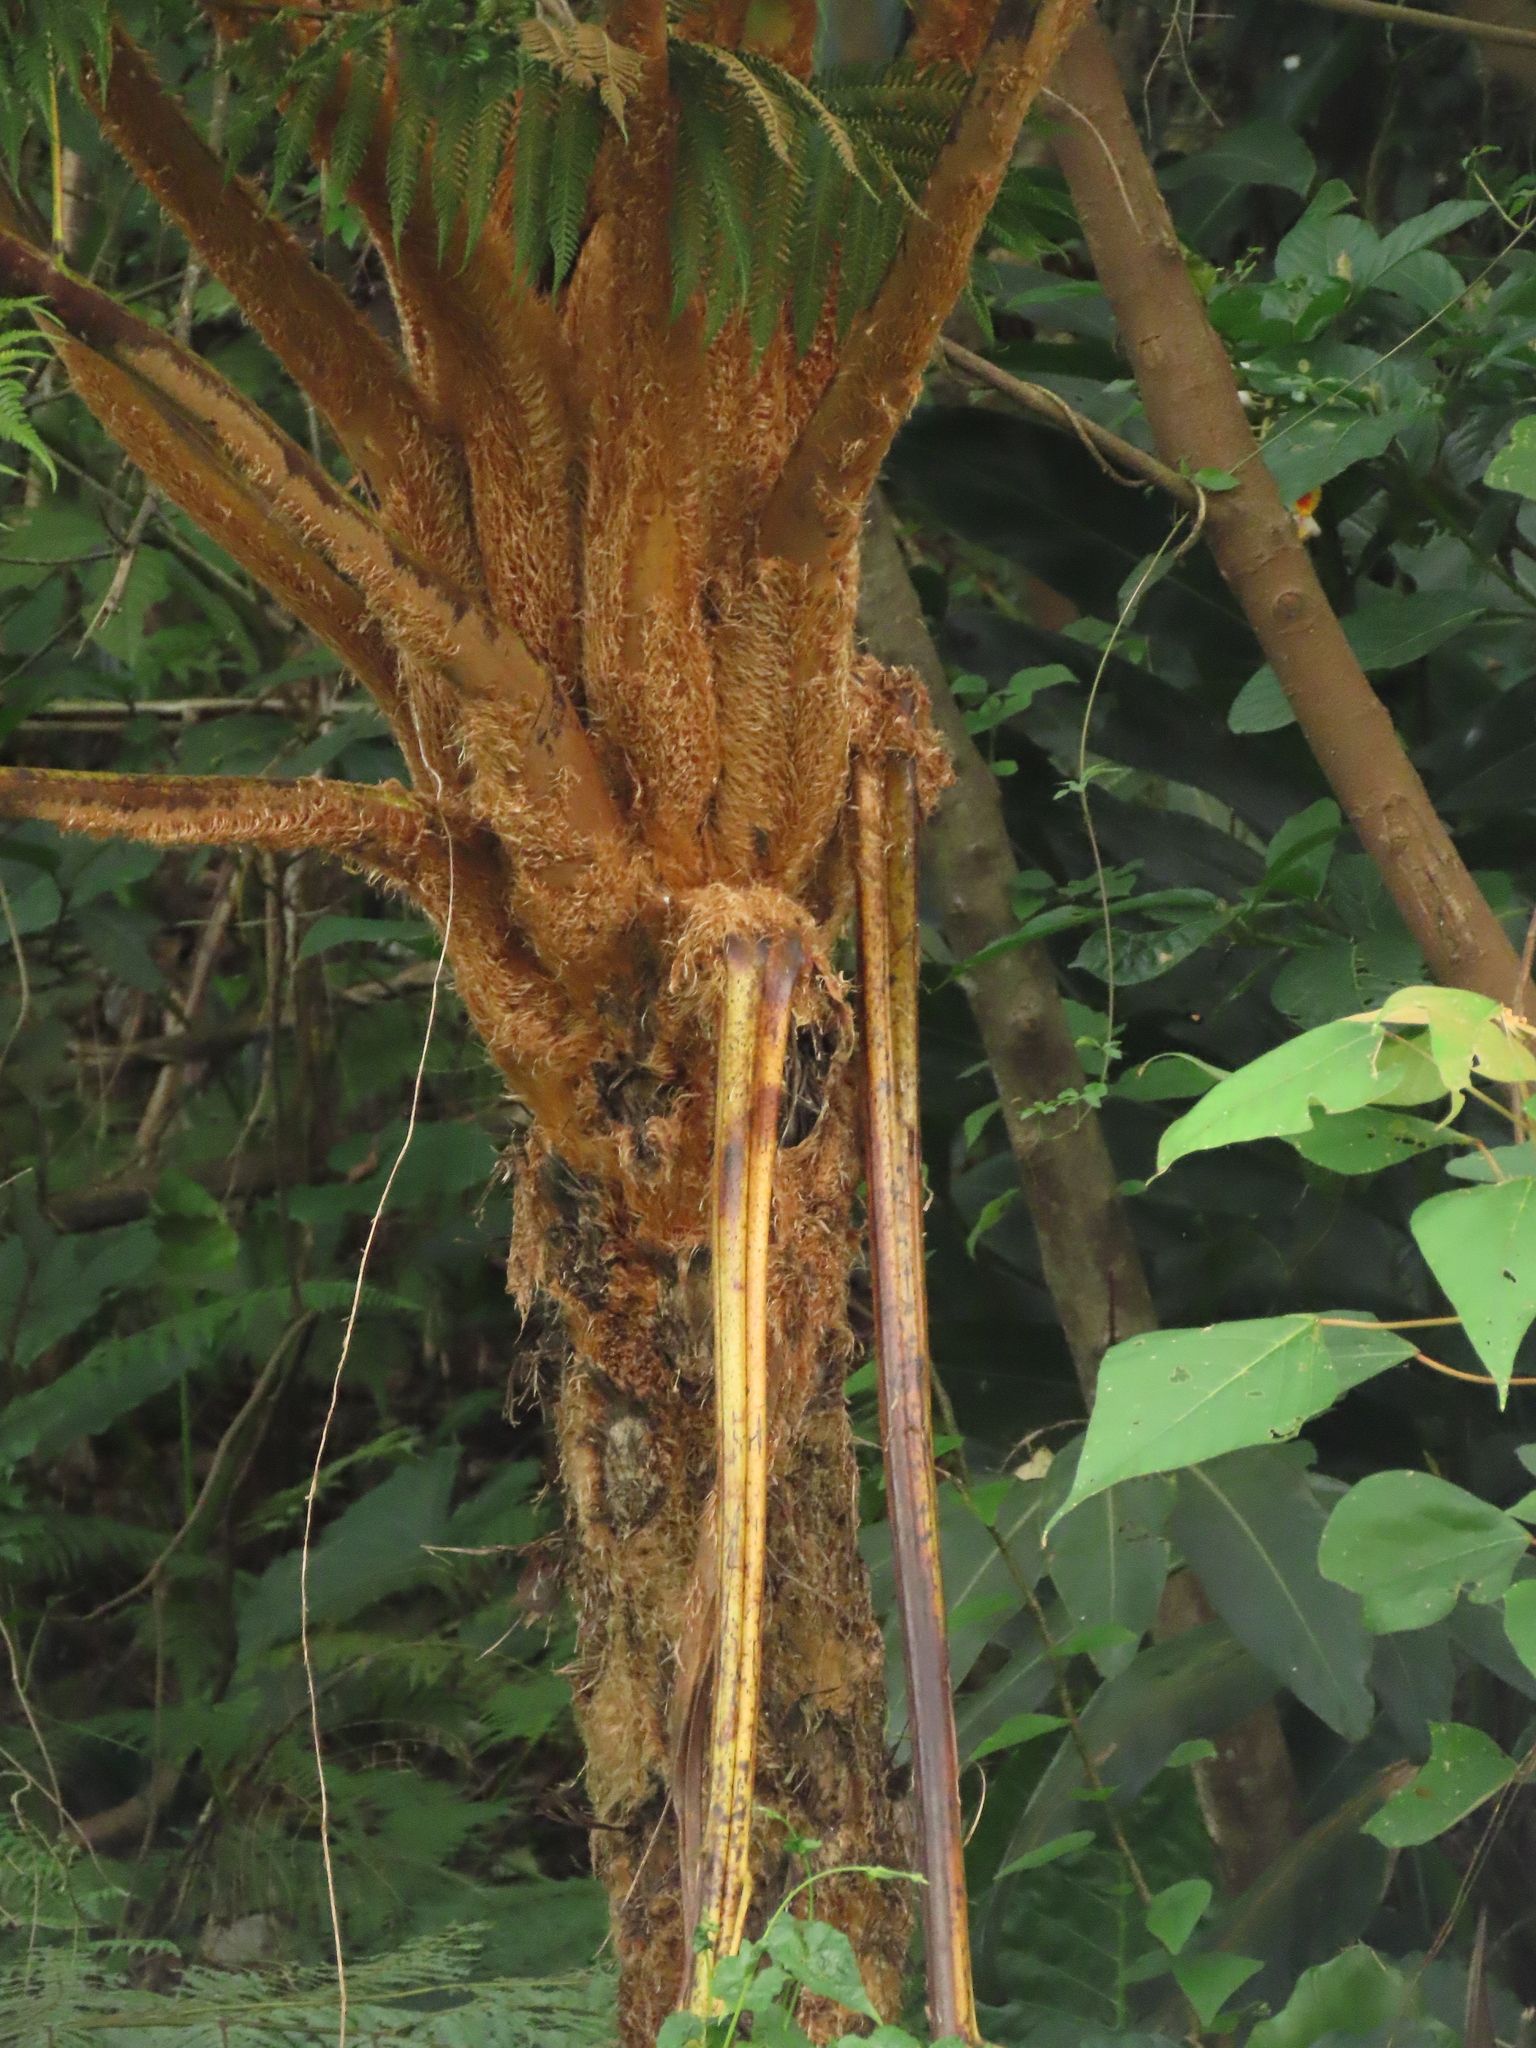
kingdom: Plantae
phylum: Tracheophyta
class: Polypodiopsida
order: Cyatheales
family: Cyatheaceae
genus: Alsophila
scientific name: Alsophila lepifera
